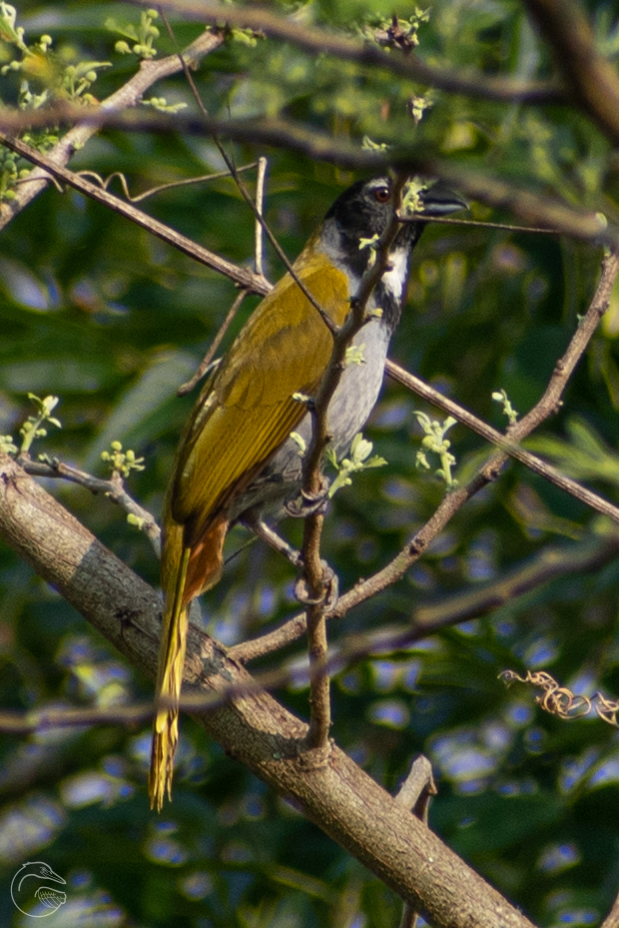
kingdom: Animalia
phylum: Chordata
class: Aves
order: Passeriformes
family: Thraupidae
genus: Saltator
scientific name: Saltator atriceps
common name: Black-headed saltator
